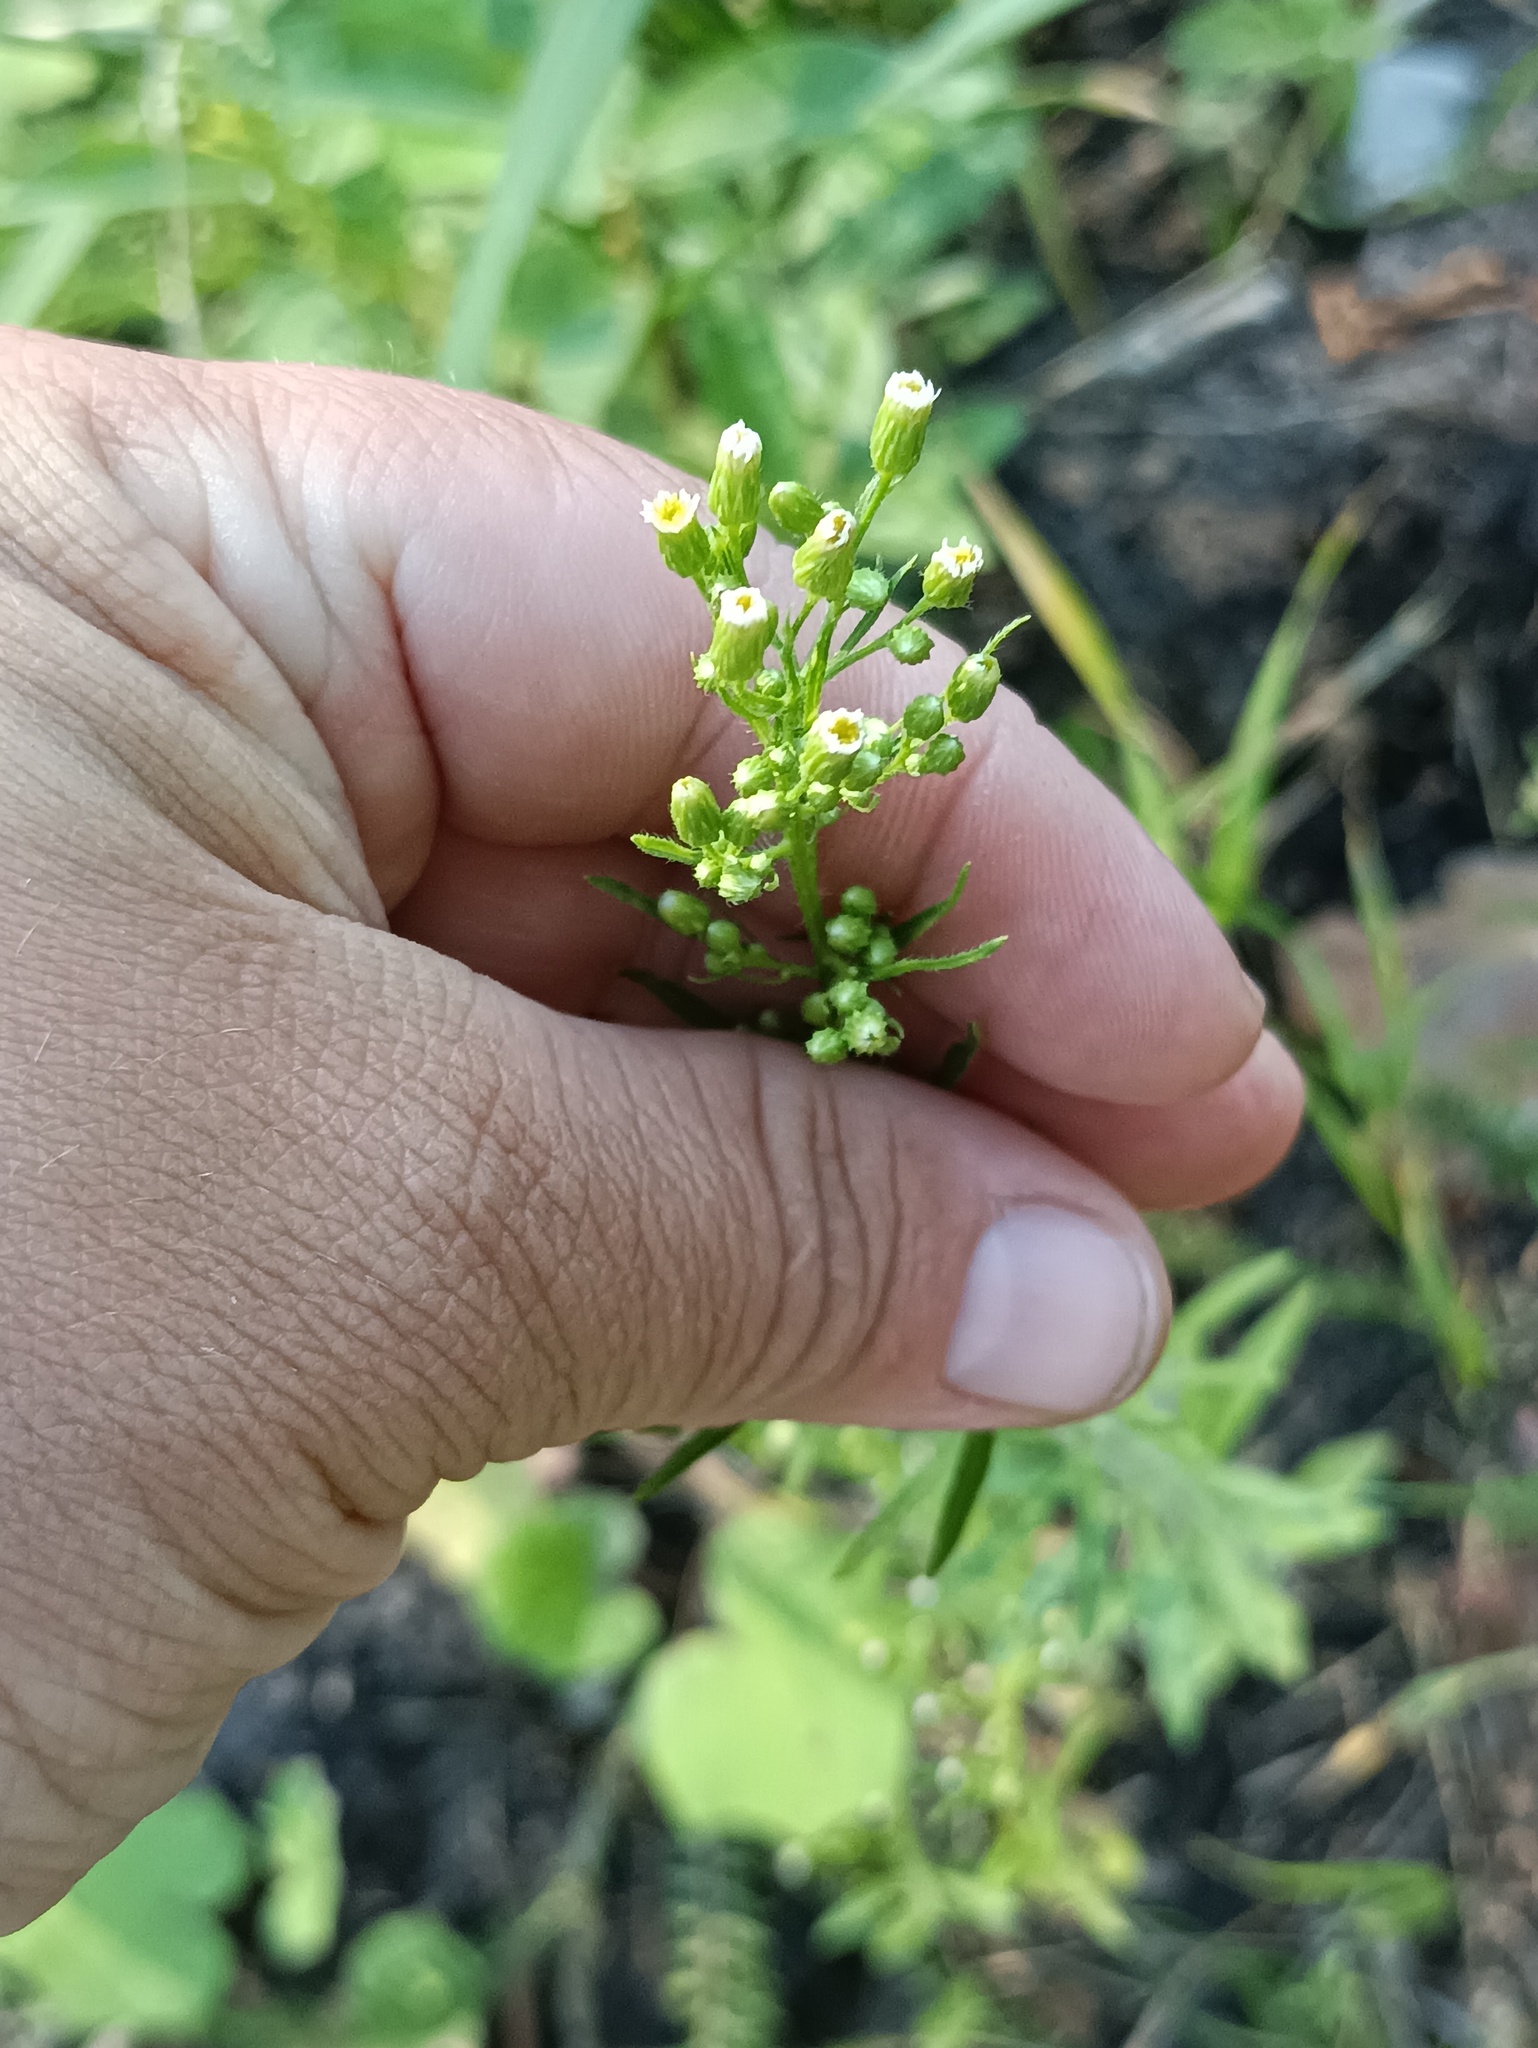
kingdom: Plantae
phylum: Tracheophyta
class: Magnoliopsida
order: Asterales
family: Asteraceae
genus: Erigeron
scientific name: Erigeron canadensis
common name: Canadian fleabane
